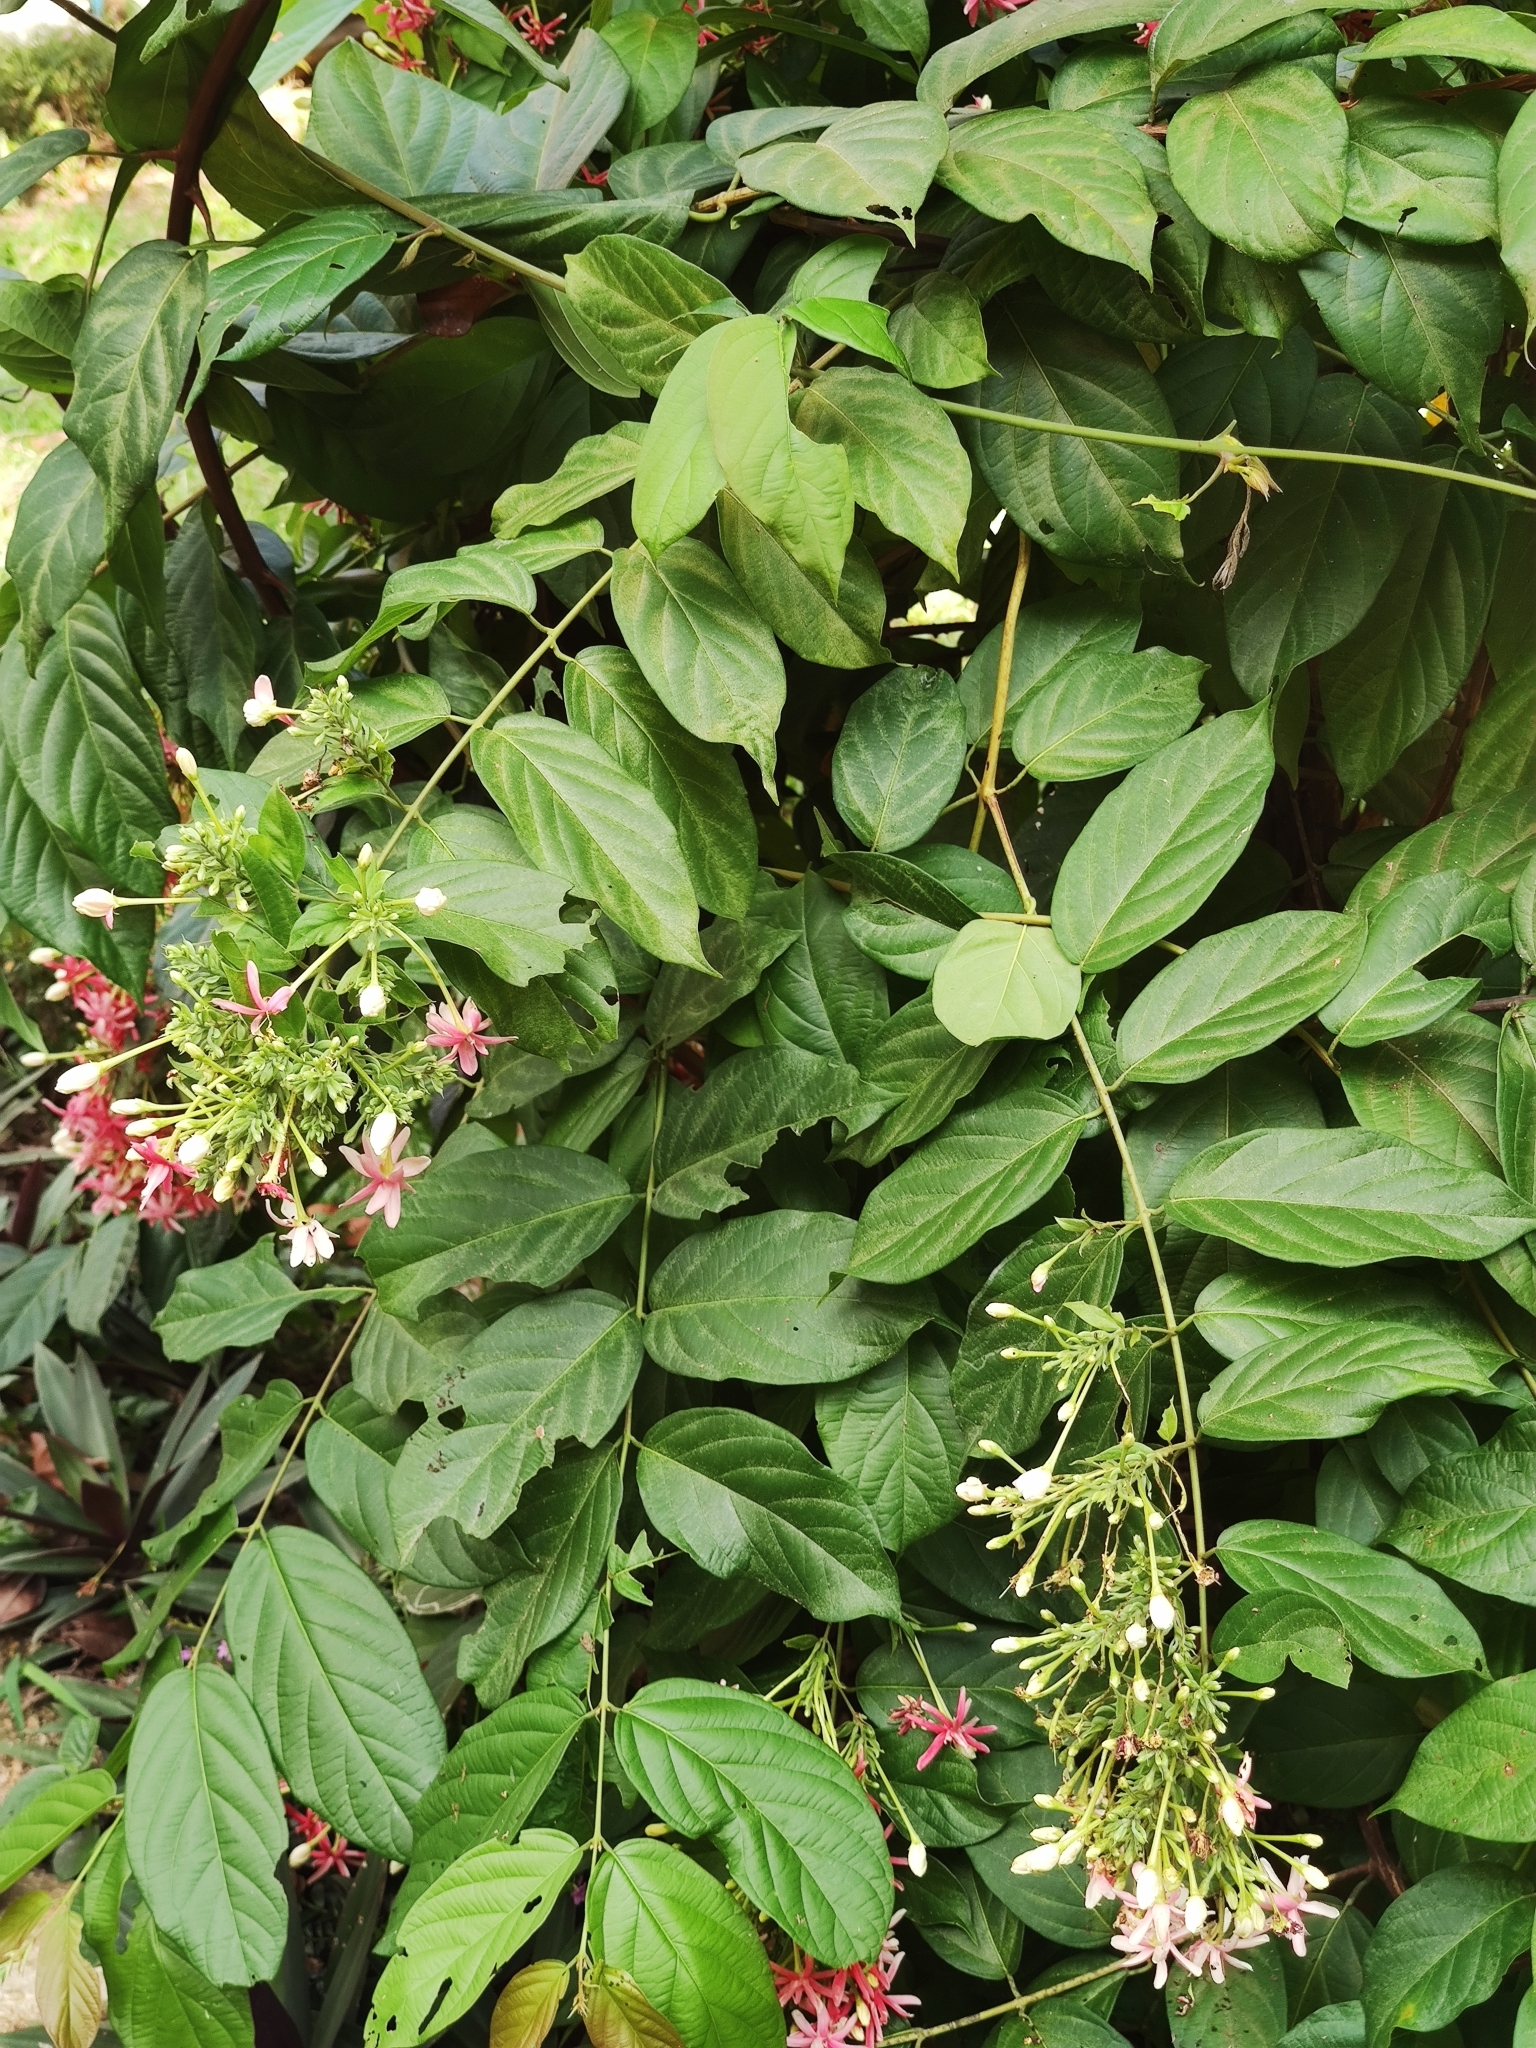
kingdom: Plantae
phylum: Tracheophyta
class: Magnoliopsida
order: Myrtales
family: Combretaceae
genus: Combretum
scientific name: Combretum indicum
